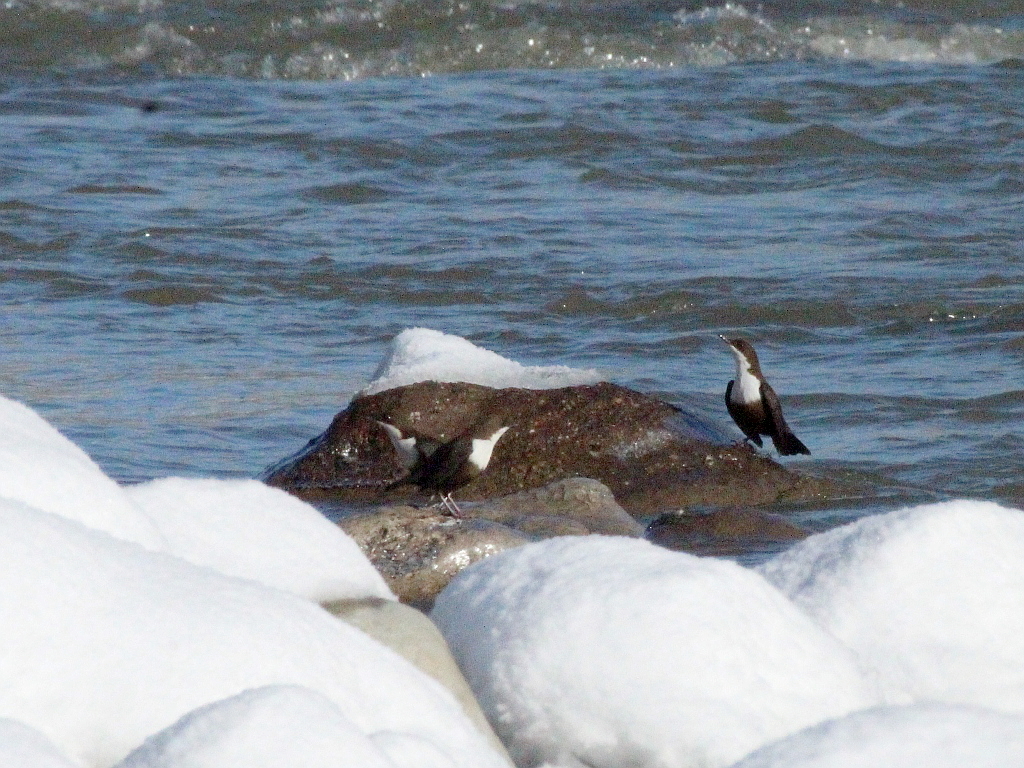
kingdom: Animalia
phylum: Chordata
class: Aves
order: Passeriformes
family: Cinclidae
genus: Cinclus
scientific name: Cinclus cinclus
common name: White-throated dipper
